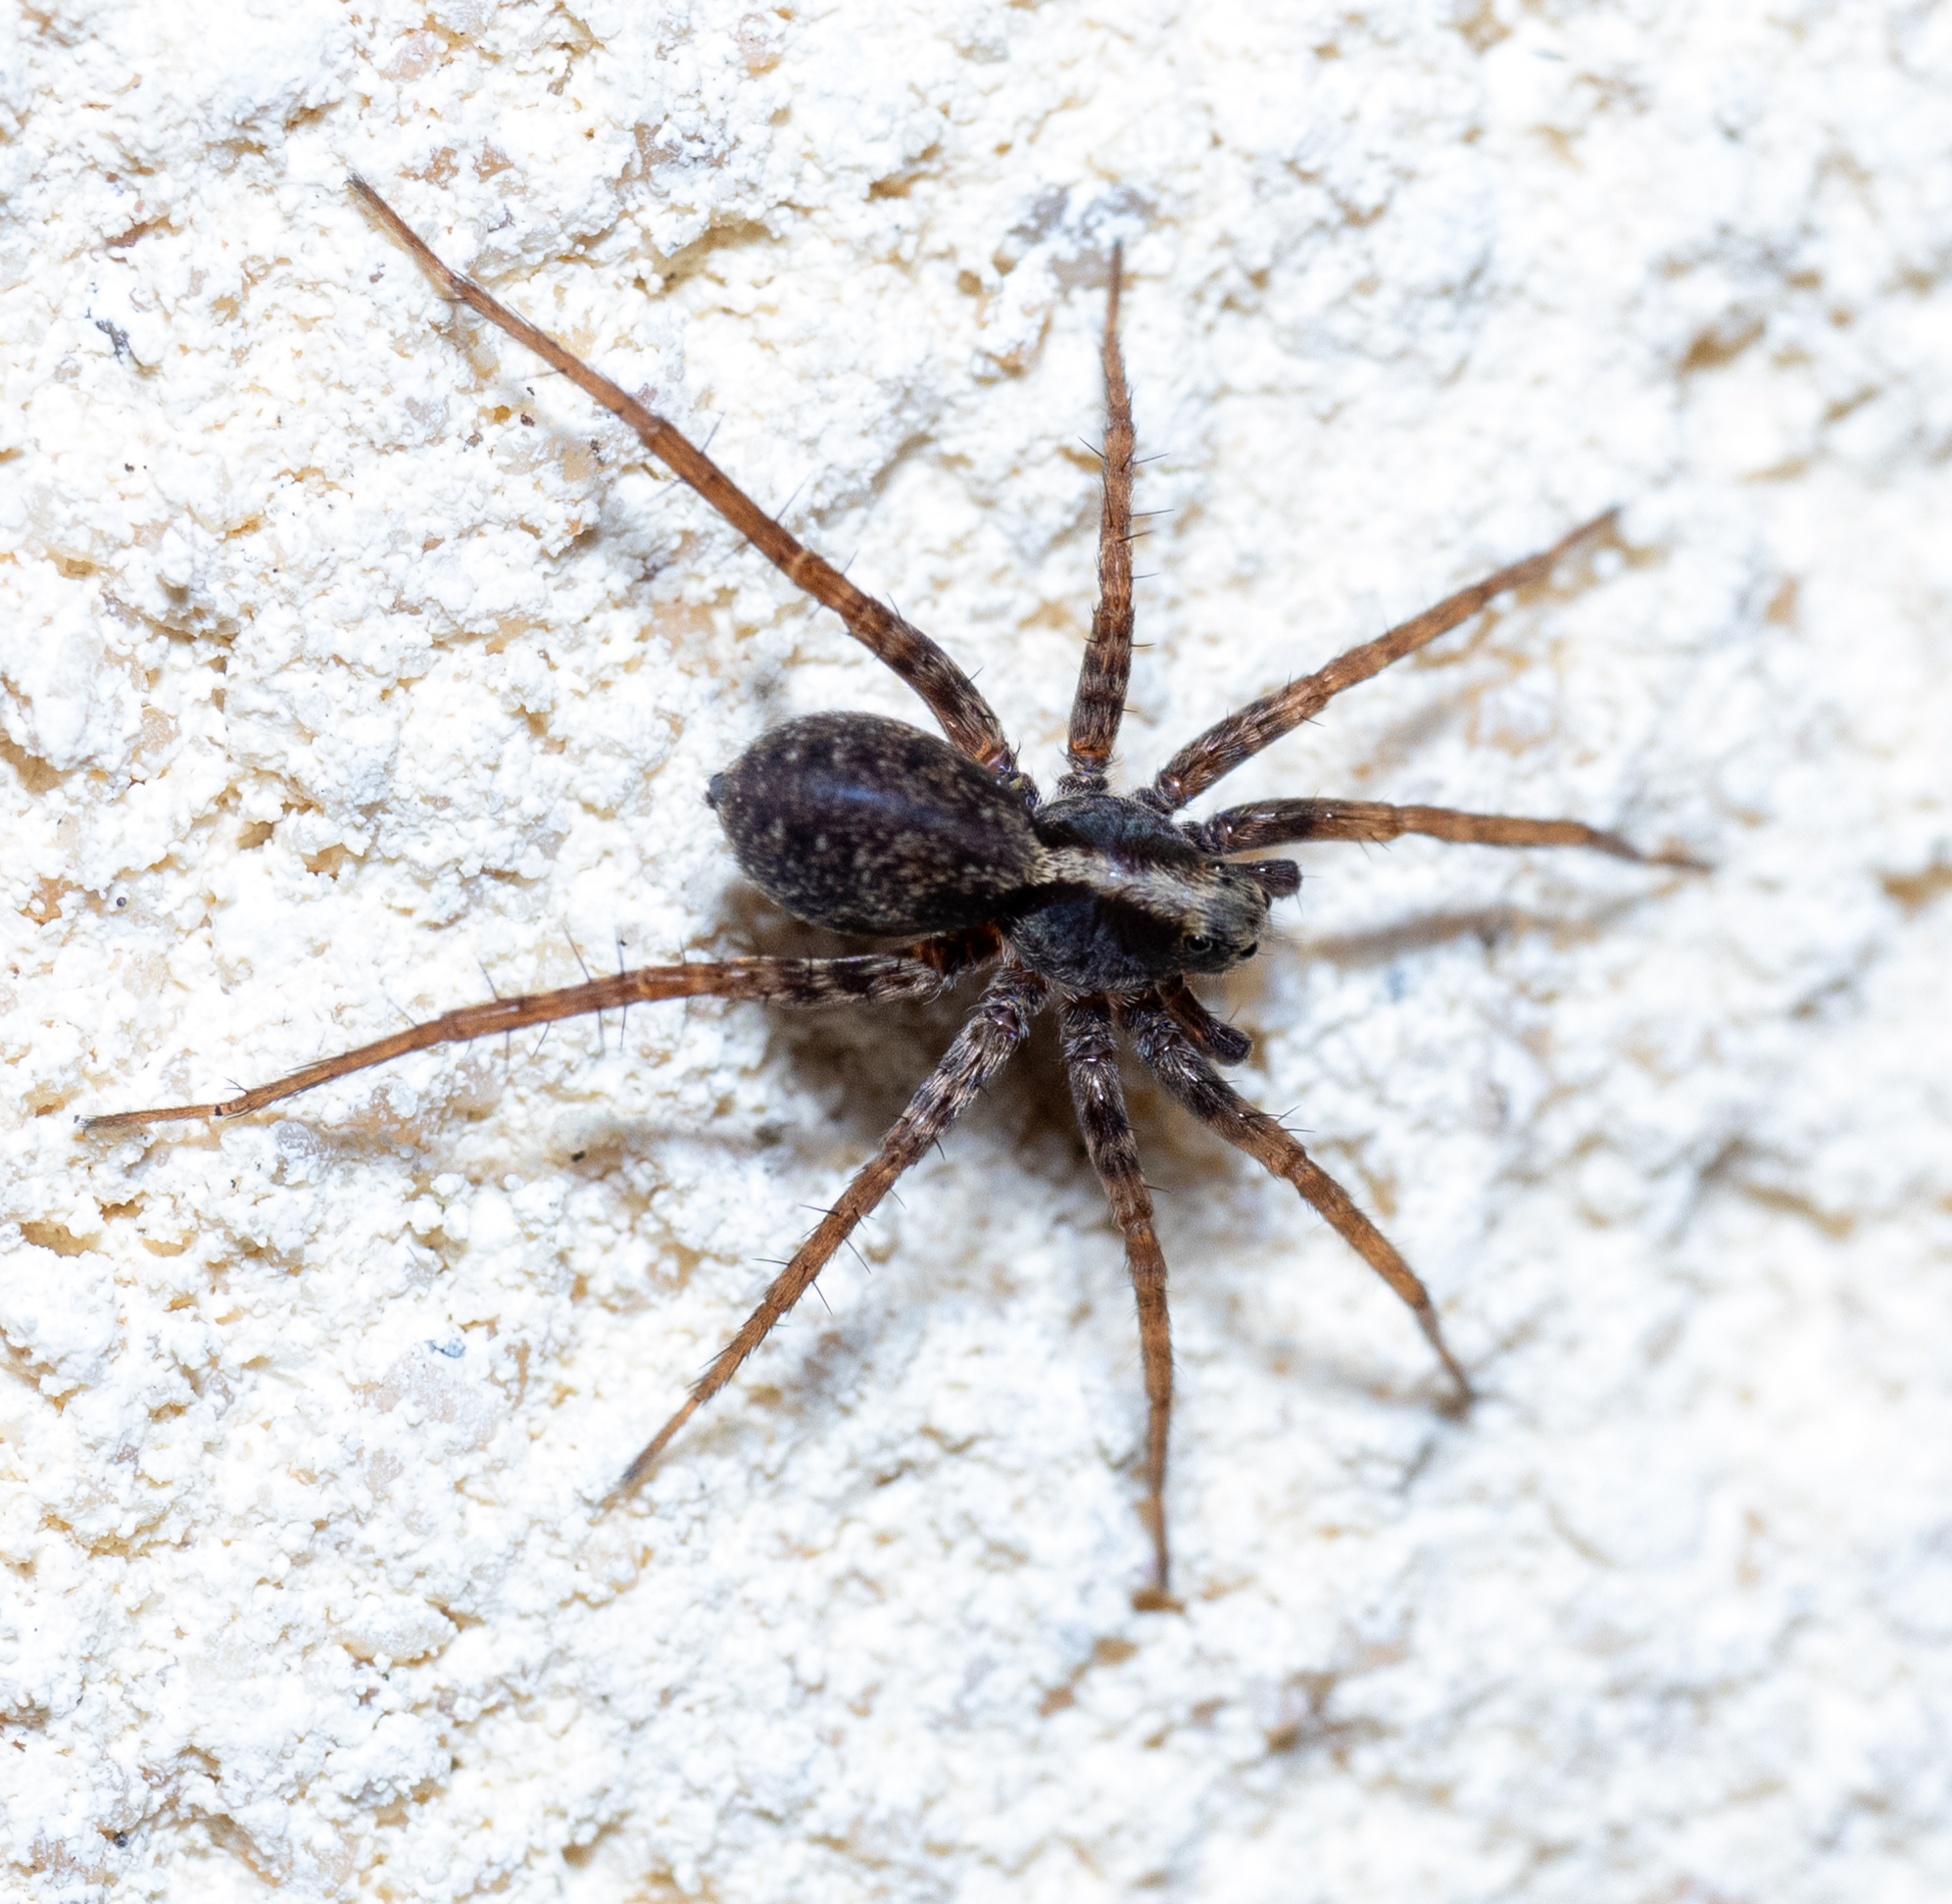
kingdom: Animalia
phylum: Arthropoda
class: Arachnida
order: Araneae
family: Lycosidae
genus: Pardosa
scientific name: Pardosa
